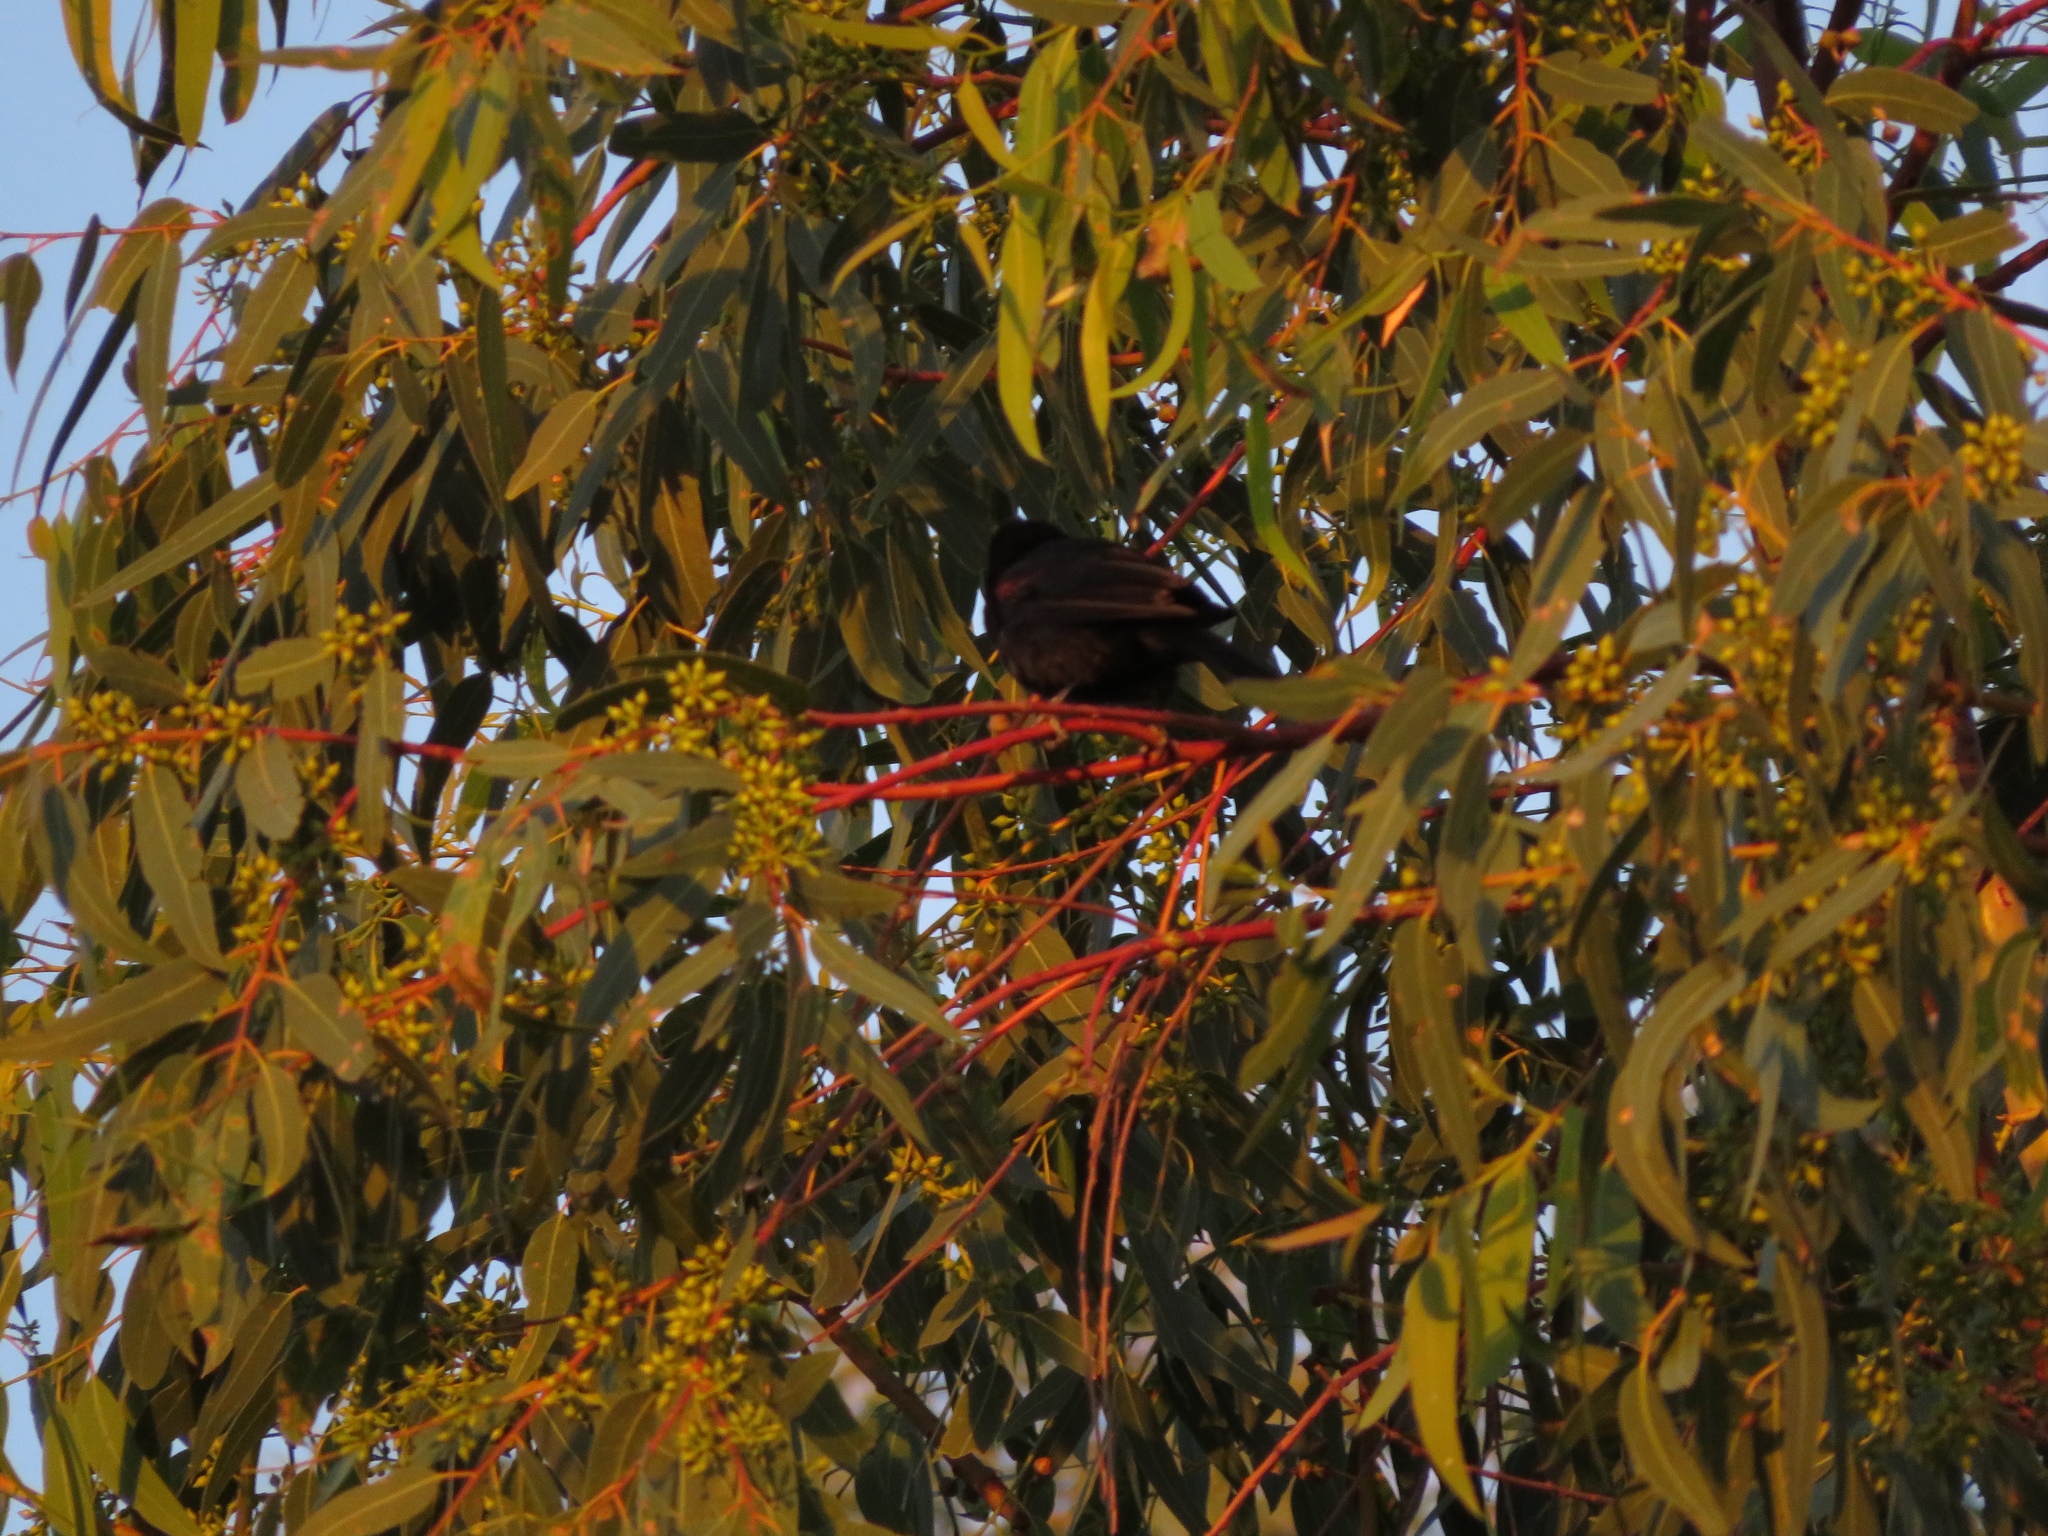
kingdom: Animalia
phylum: Chordata
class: Aves
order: Passeriformes
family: Icteridae
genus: Icterus
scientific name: Icterus cayanensis
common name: Epaulet oriole
